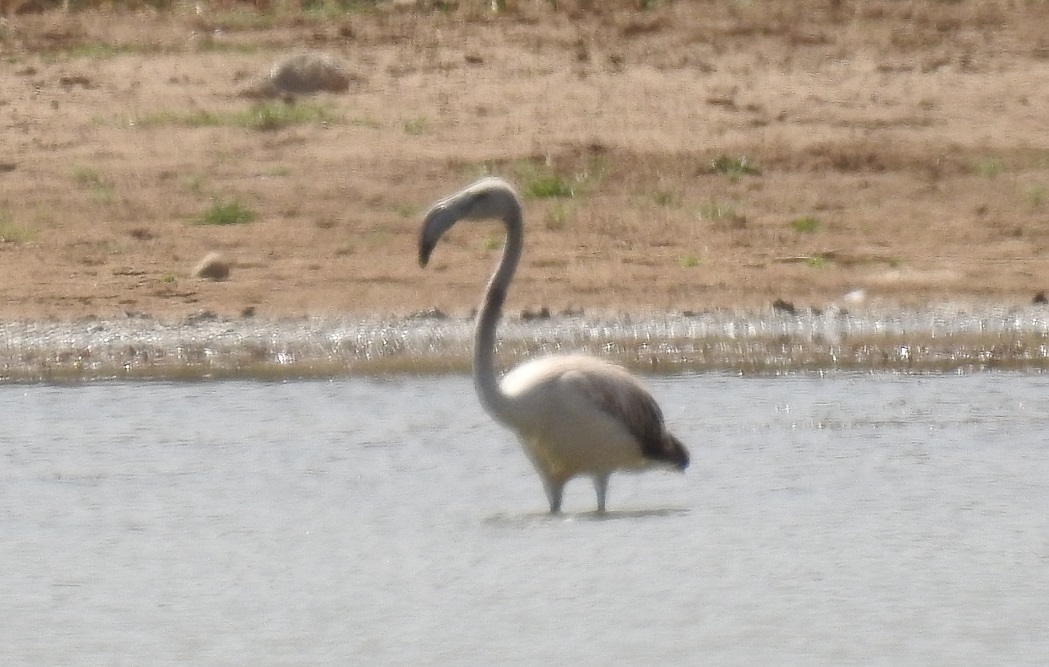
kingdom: Animalia
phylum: Chordata
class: Aves
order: Phoenicopteriformes
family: Phoenicopteridae
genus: Phoenicopterus
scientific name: Phoenicopterus roseus
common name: Greater flamingo
